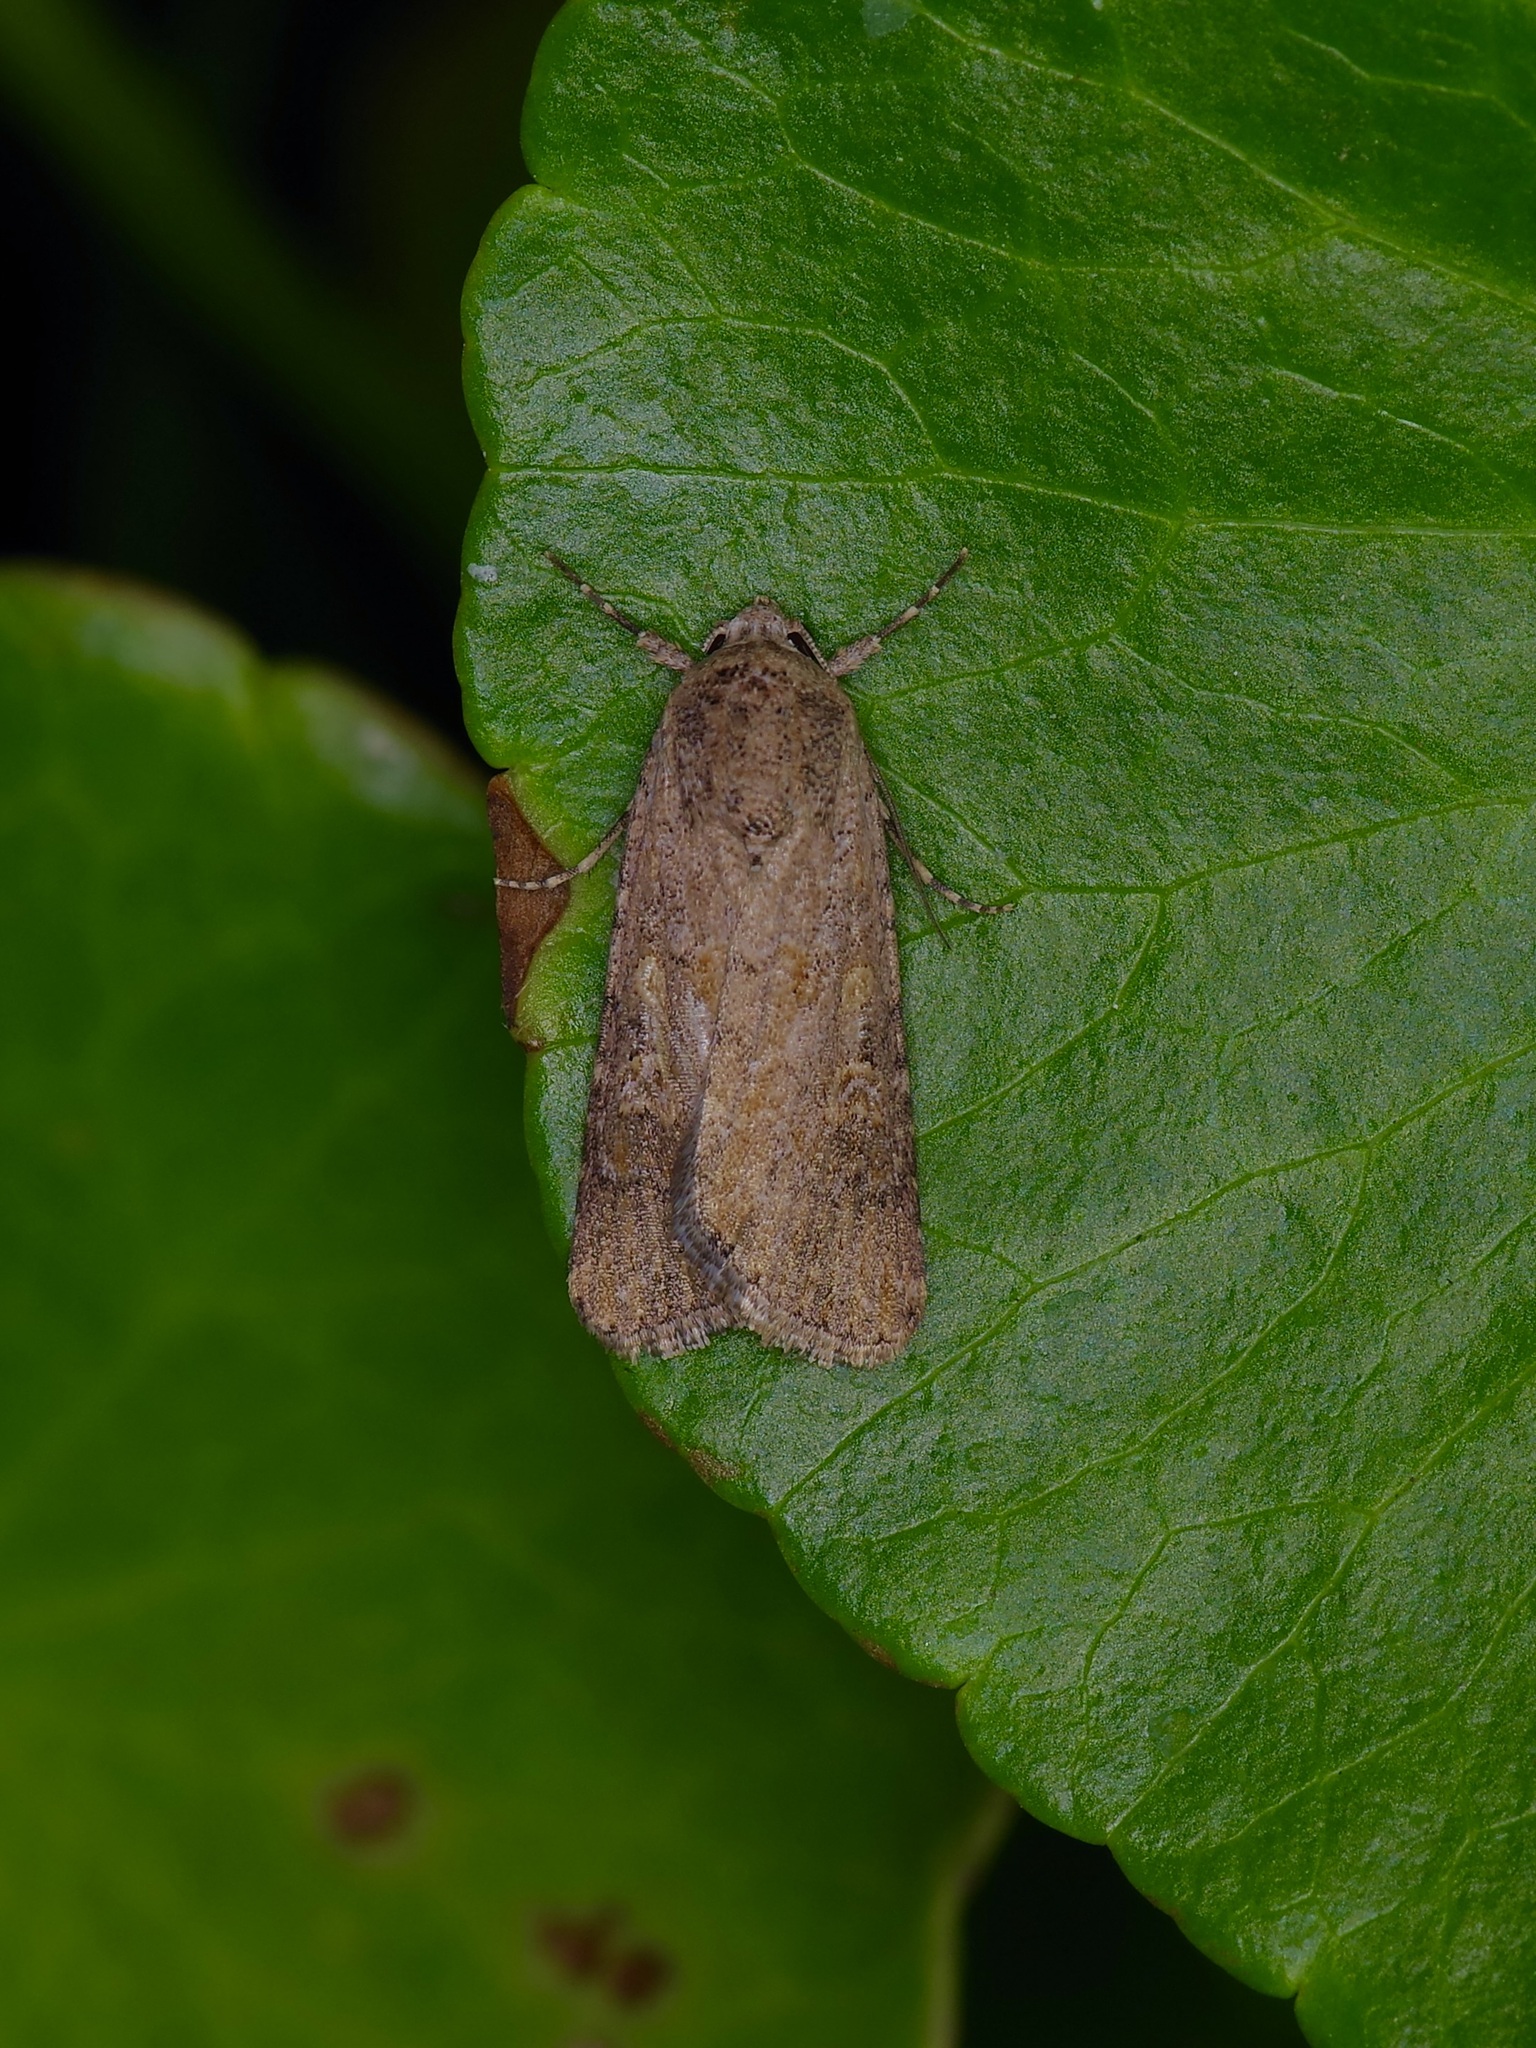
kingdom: Animalia
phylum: Arthropoda
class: Insecta
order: Lepidoptera
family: Noctuidae
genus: Spodoptera
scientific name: Spodoptera exigua
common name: Beet armyworm
